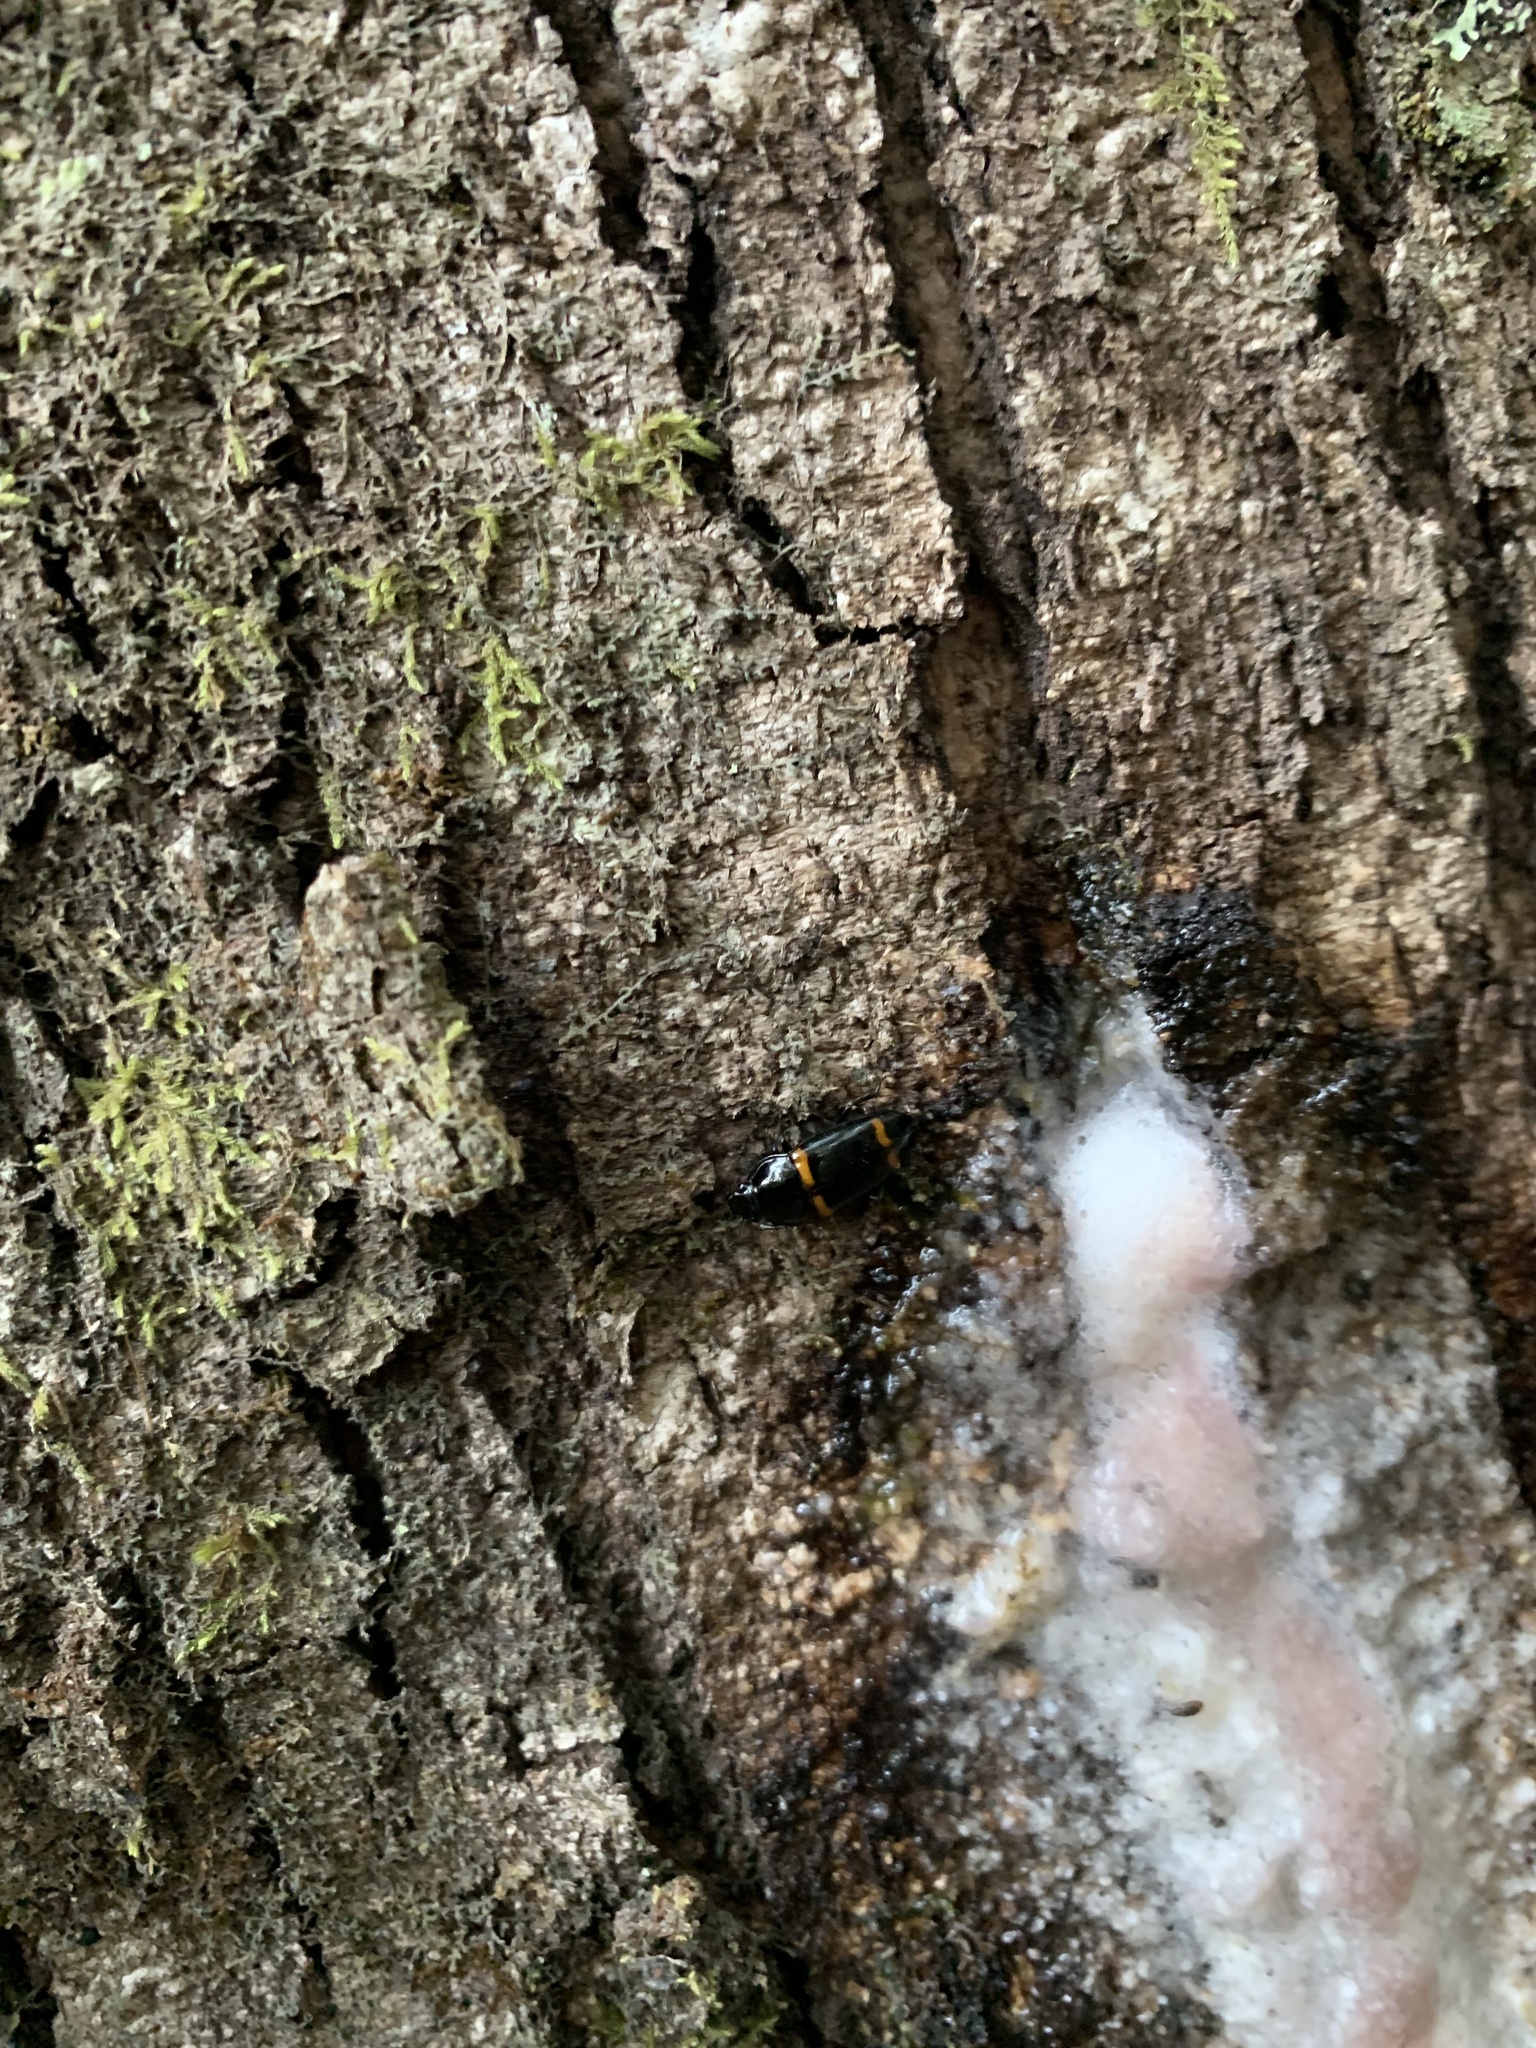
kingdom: Animalia
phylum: Arthropoda
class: Insecta
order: Coleoptera
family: Nitidulidae
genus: Lioschema
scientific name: Lioschema
